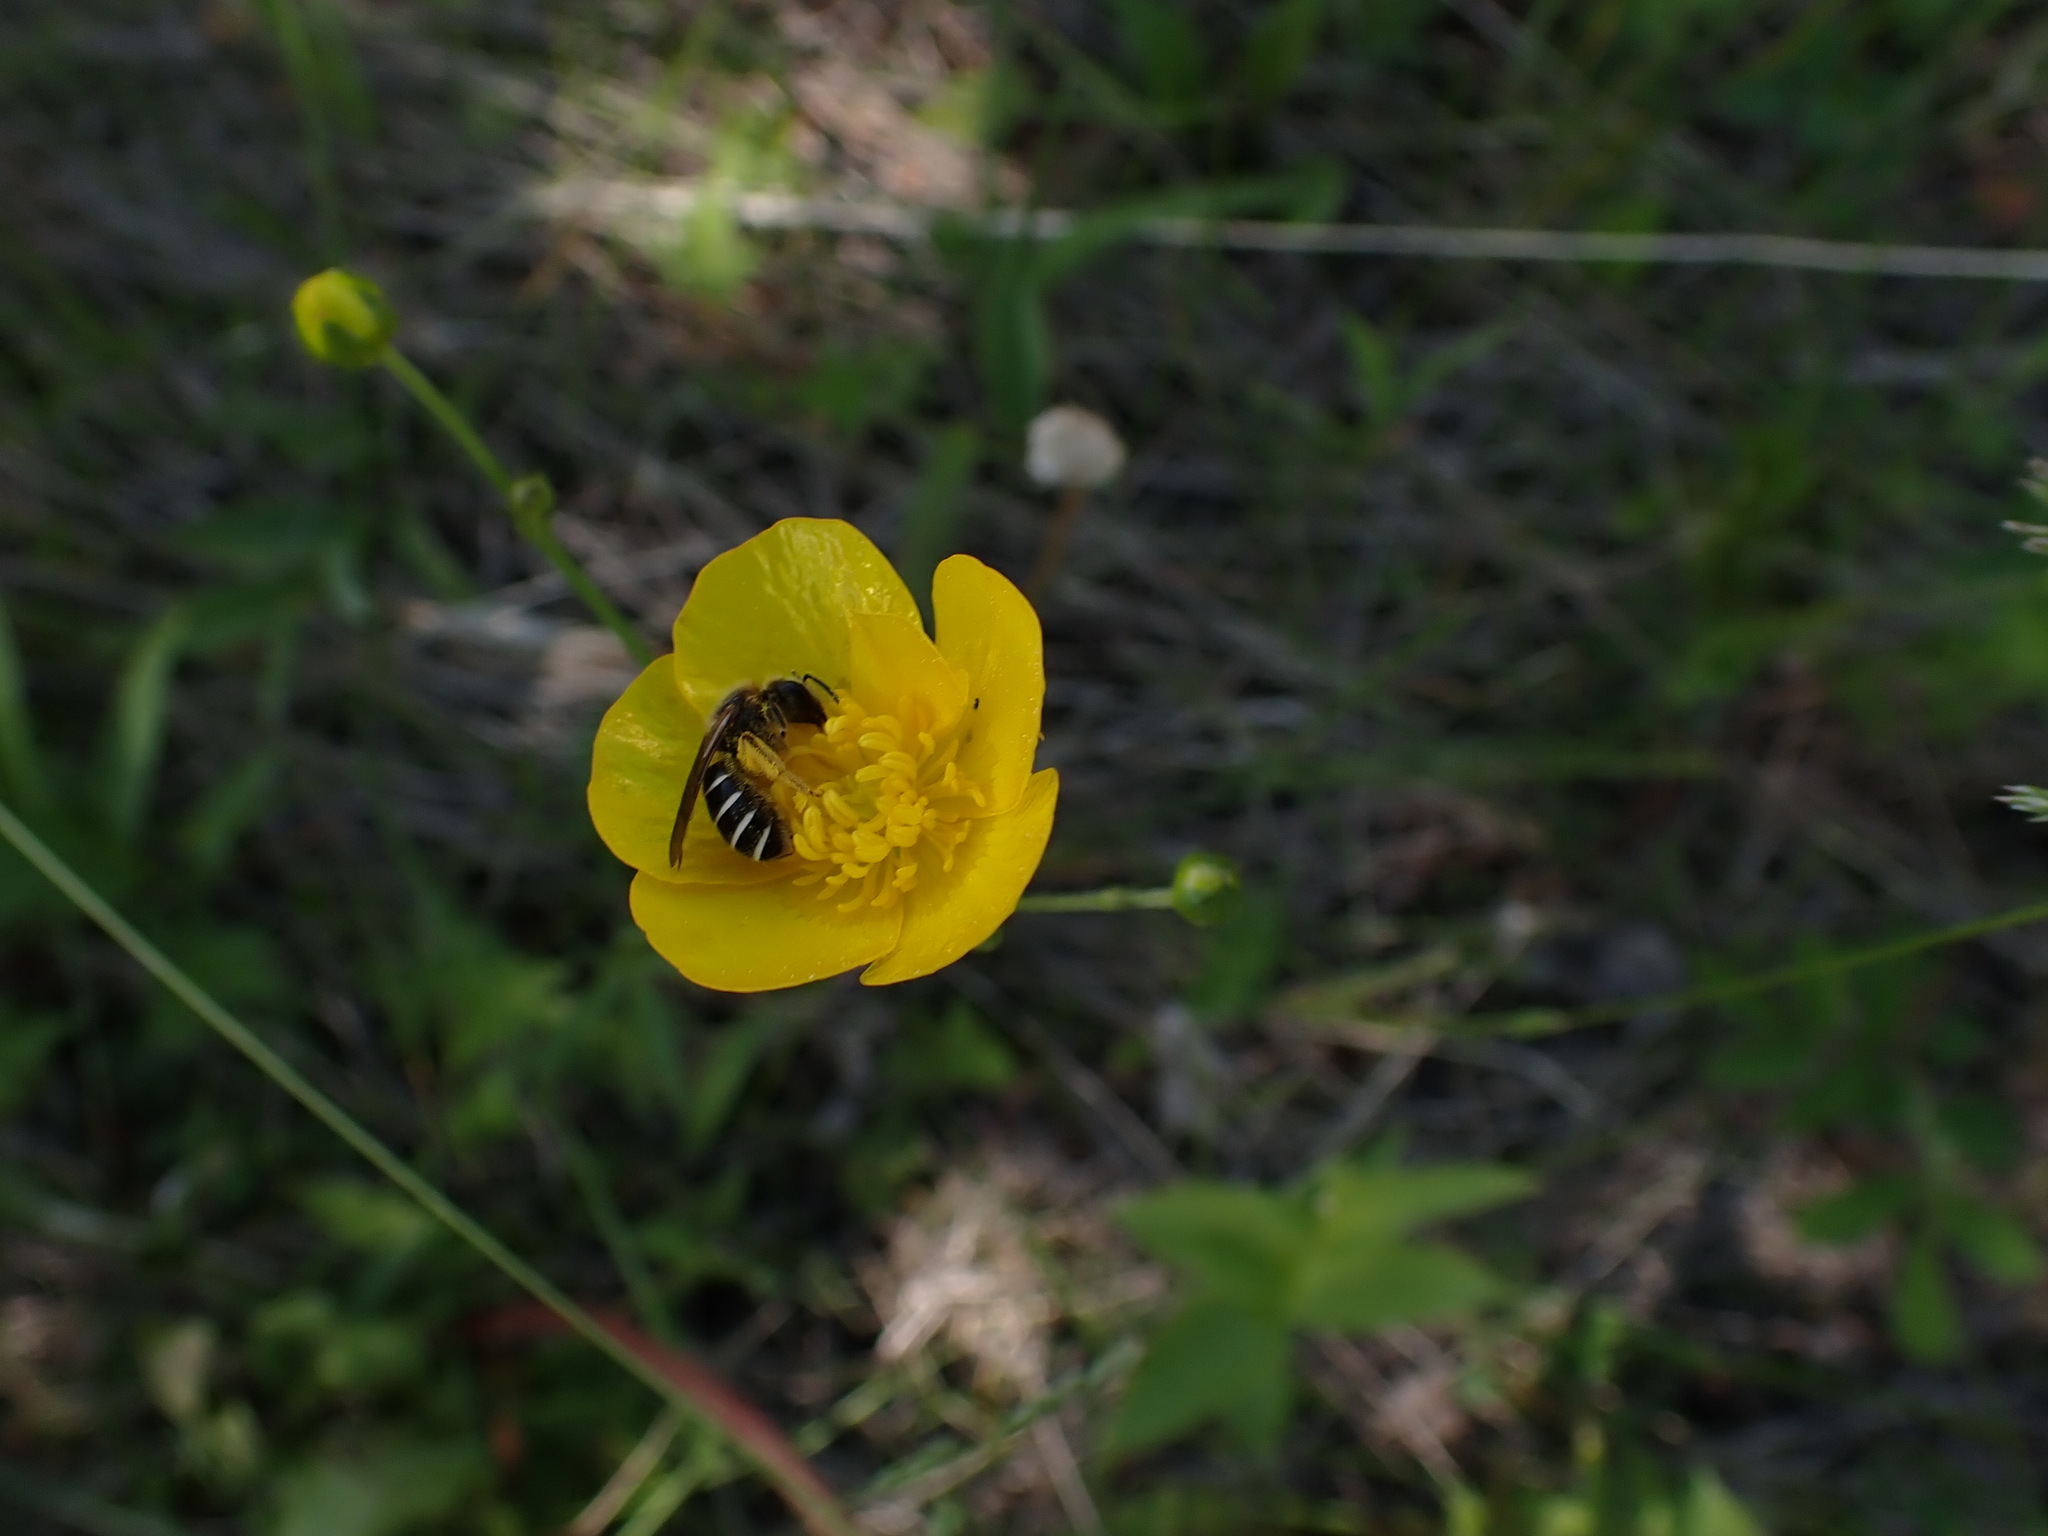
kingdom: Plantae
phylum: Tracheophyta
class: Magnoliopsida
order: Ranunculales
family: Ranunculaceae
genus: Ranunculus
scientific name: Ranunculus
